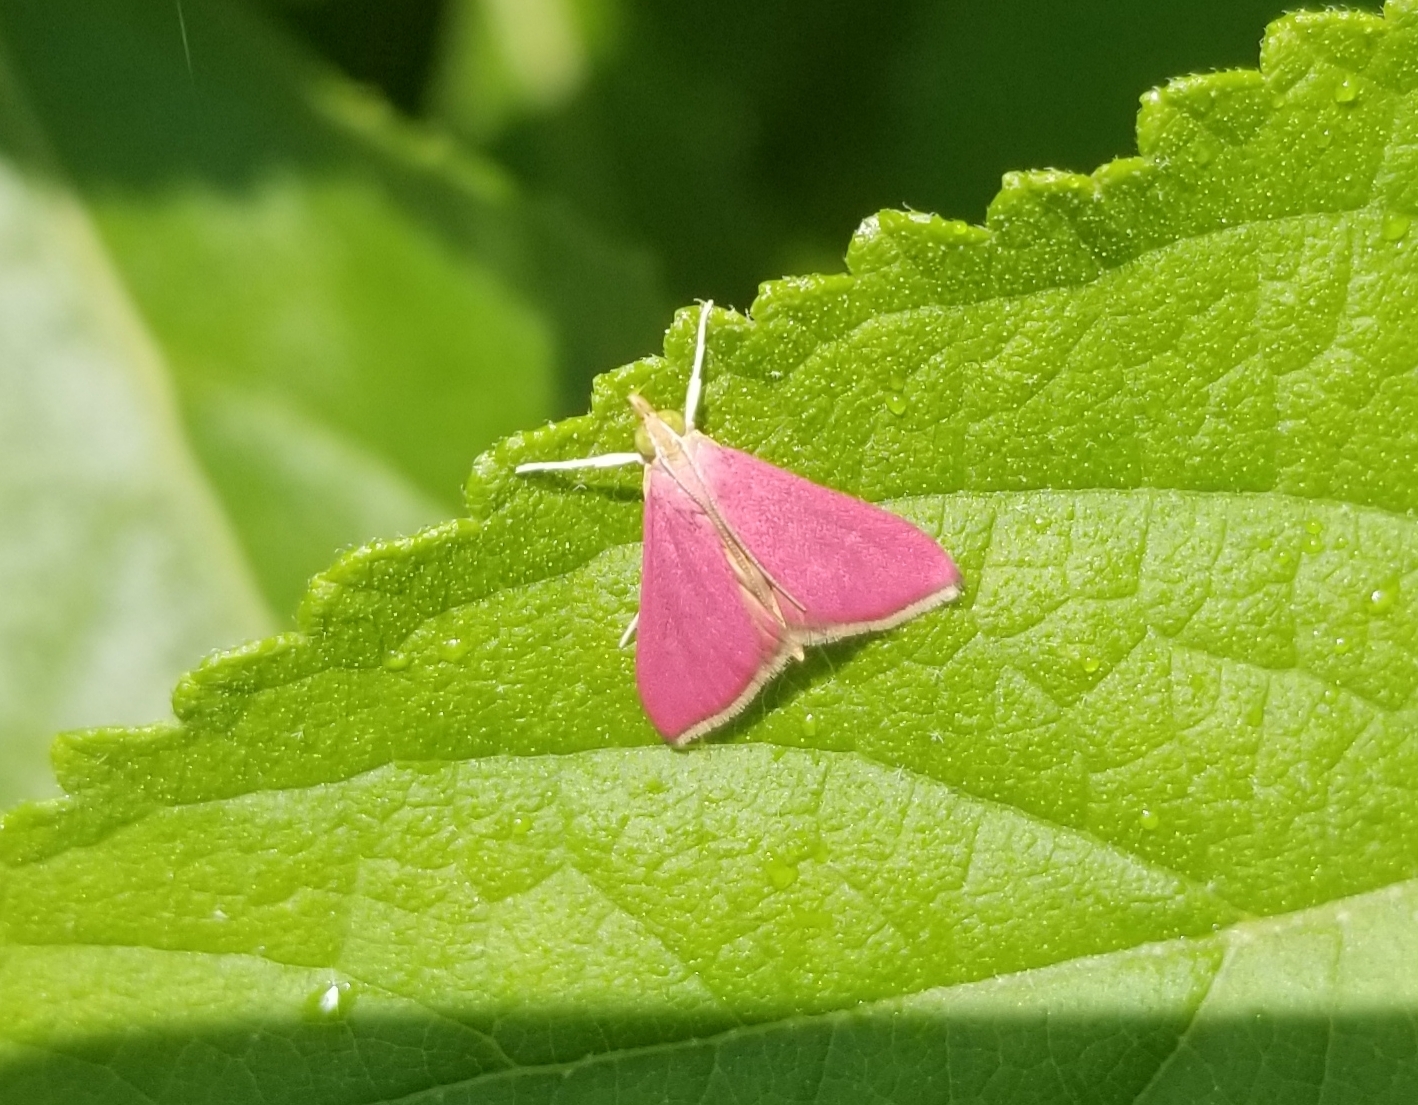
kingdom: Animalia
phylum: Arthropoda
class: Insecta
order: Lepidoptera
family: Crambidae
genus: Pyrausta
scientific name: Pyrausta inornatalis
